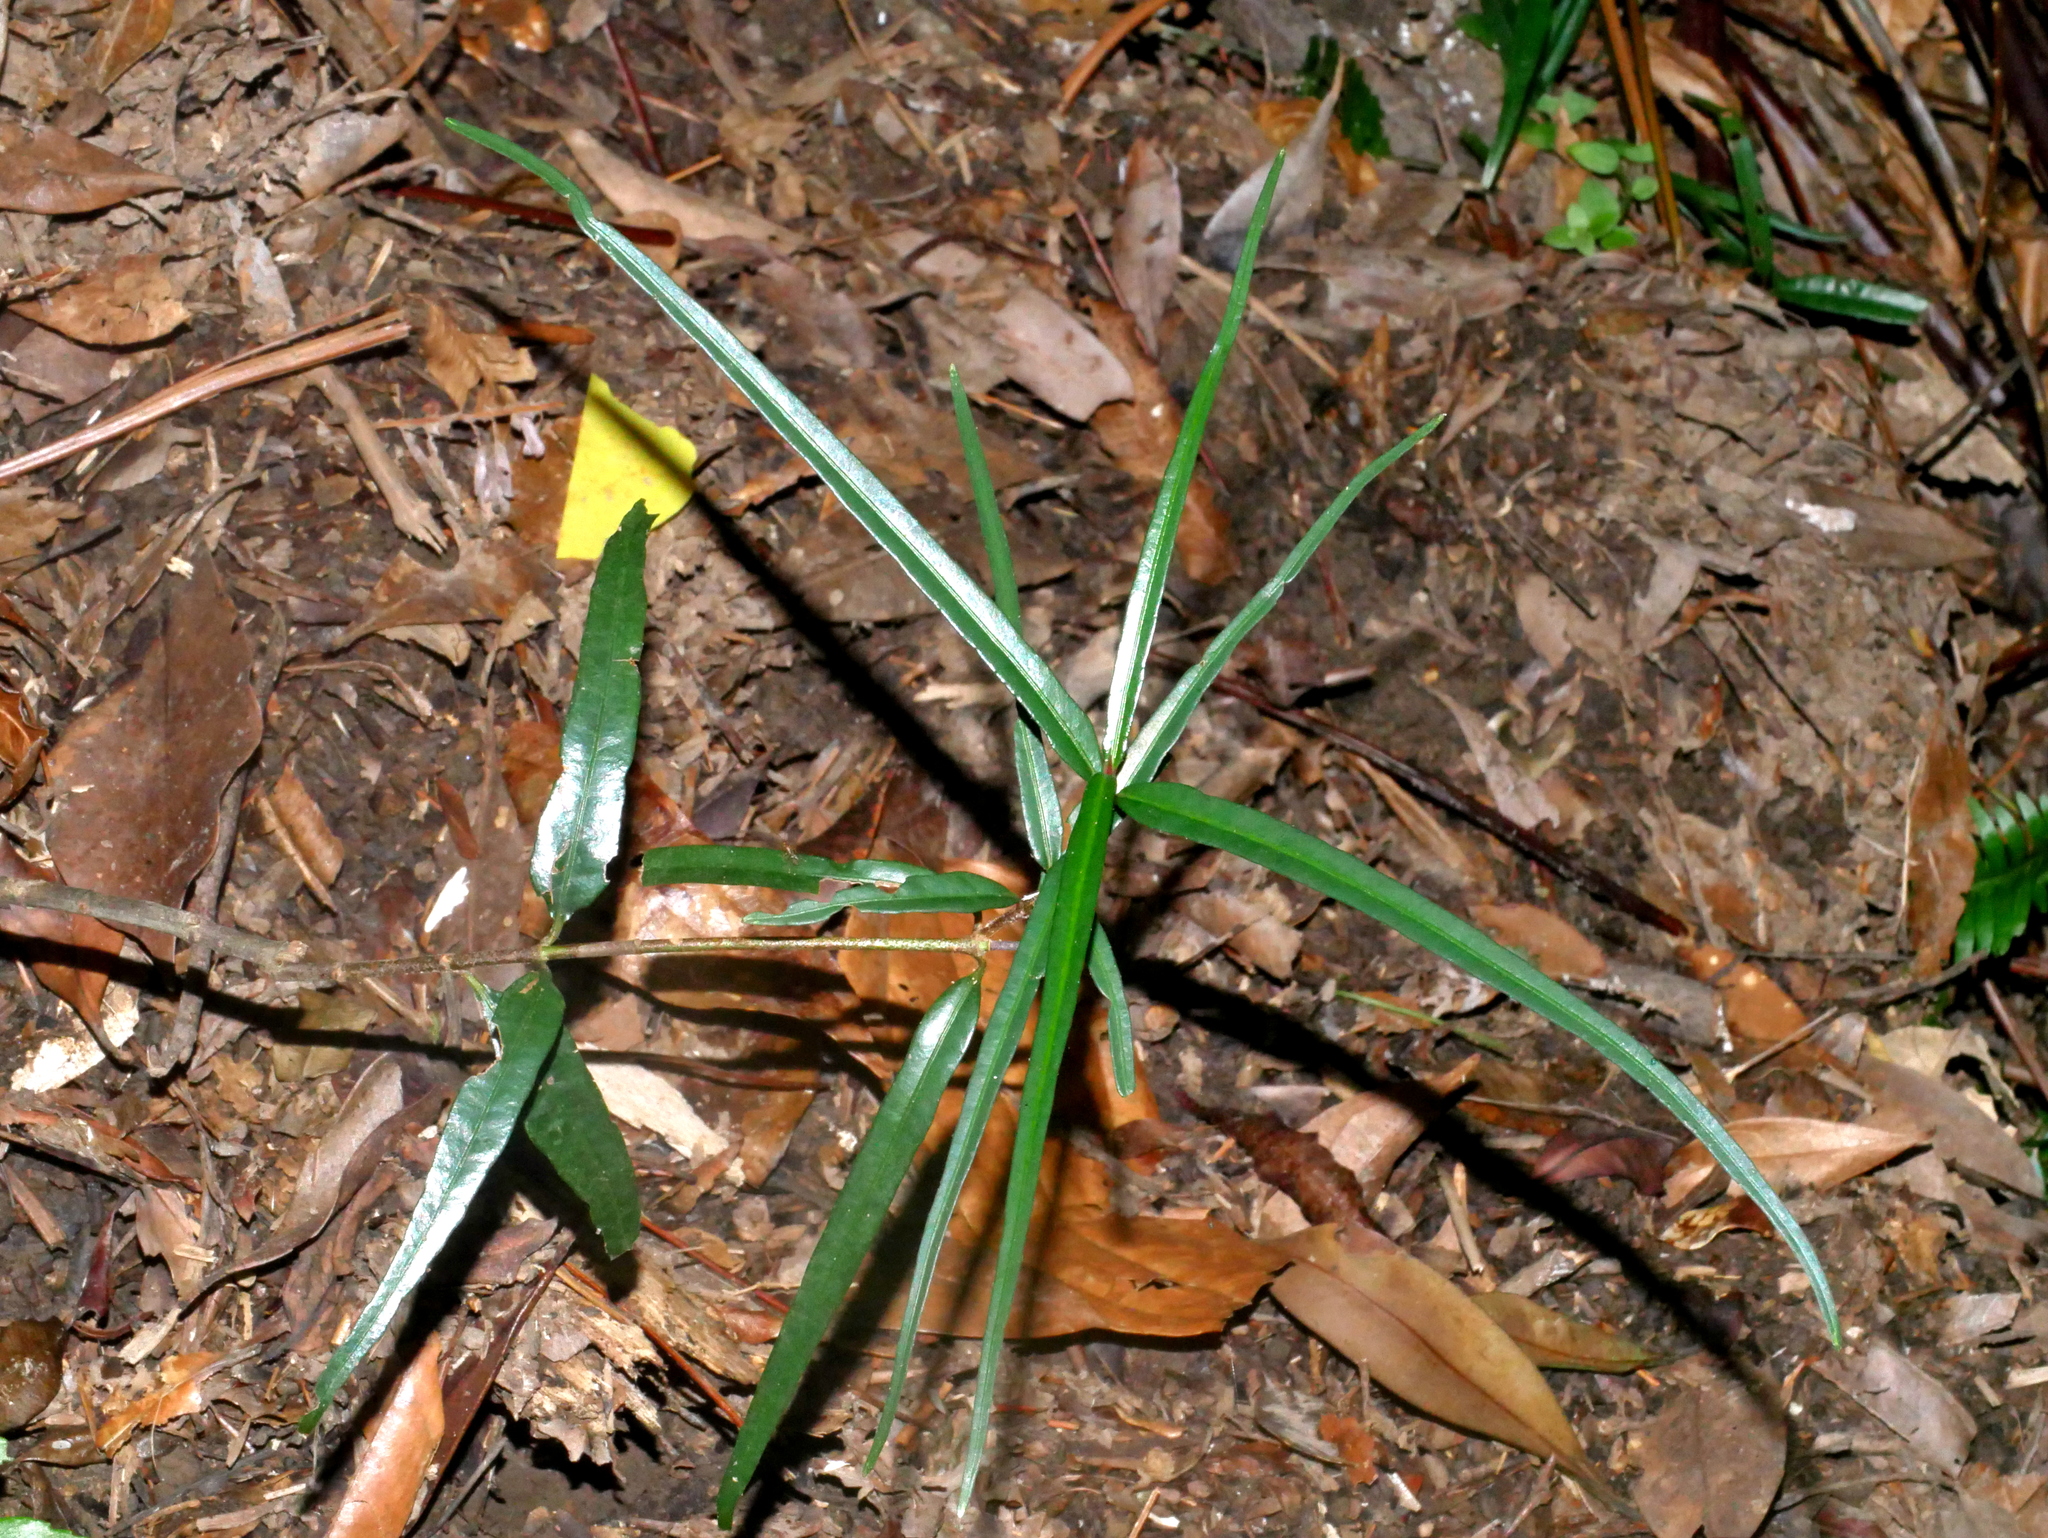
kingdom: Plantae
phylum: Tracheophyta
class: Magnoliopsida
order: Gentianales
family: Rubiaceae
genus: Aidia
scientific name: Aidia cochinchinensis
